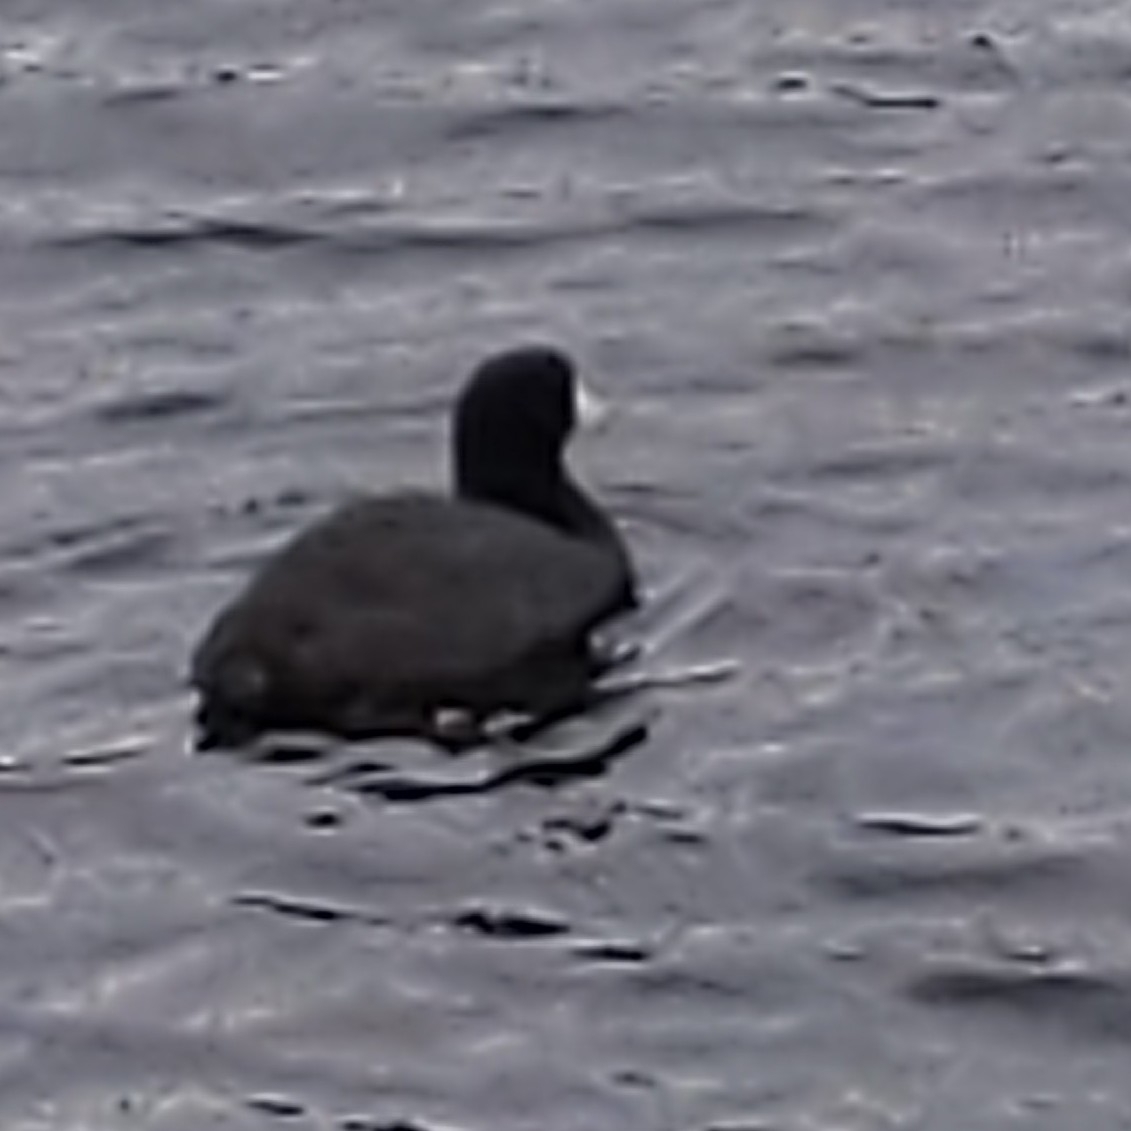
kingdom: Animalia
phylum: Chordata
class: Aves
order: Gruiformes
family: Rallidae
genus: Fulica
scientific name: Fulica americana
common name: American coot
